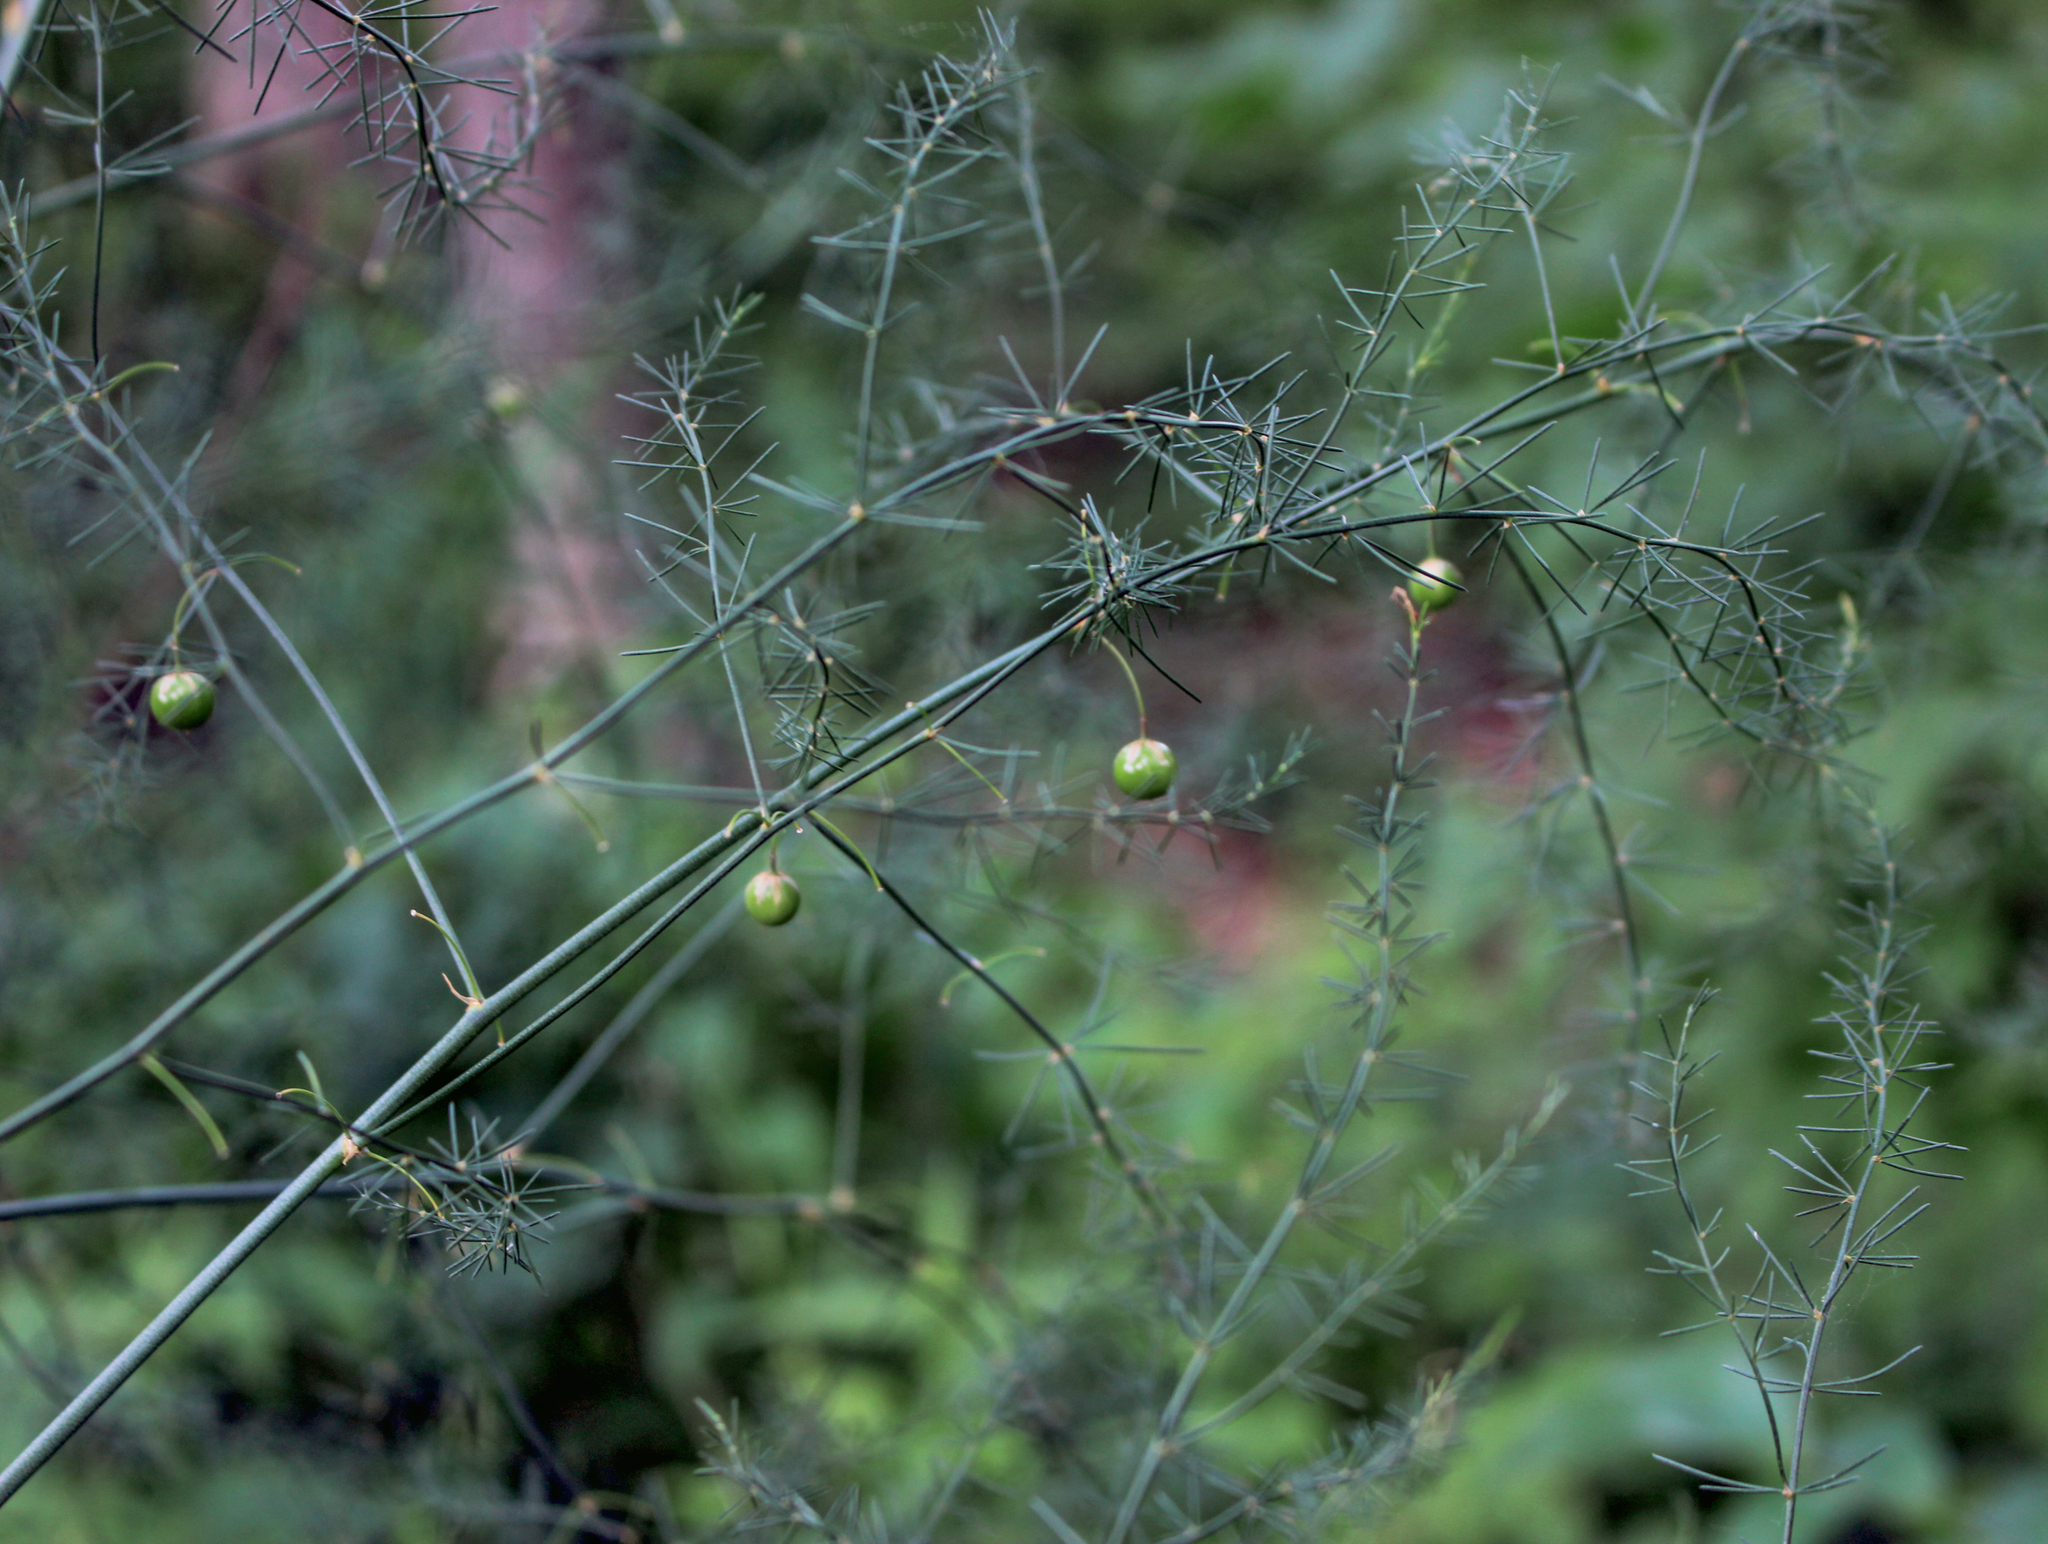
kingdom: Plantae
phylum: Tracheophyta
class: Liliopsida
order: Asparagales
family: Asparagaceae
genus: Asparagus
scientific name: Asparagus officinalis
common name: Garden asparagus
